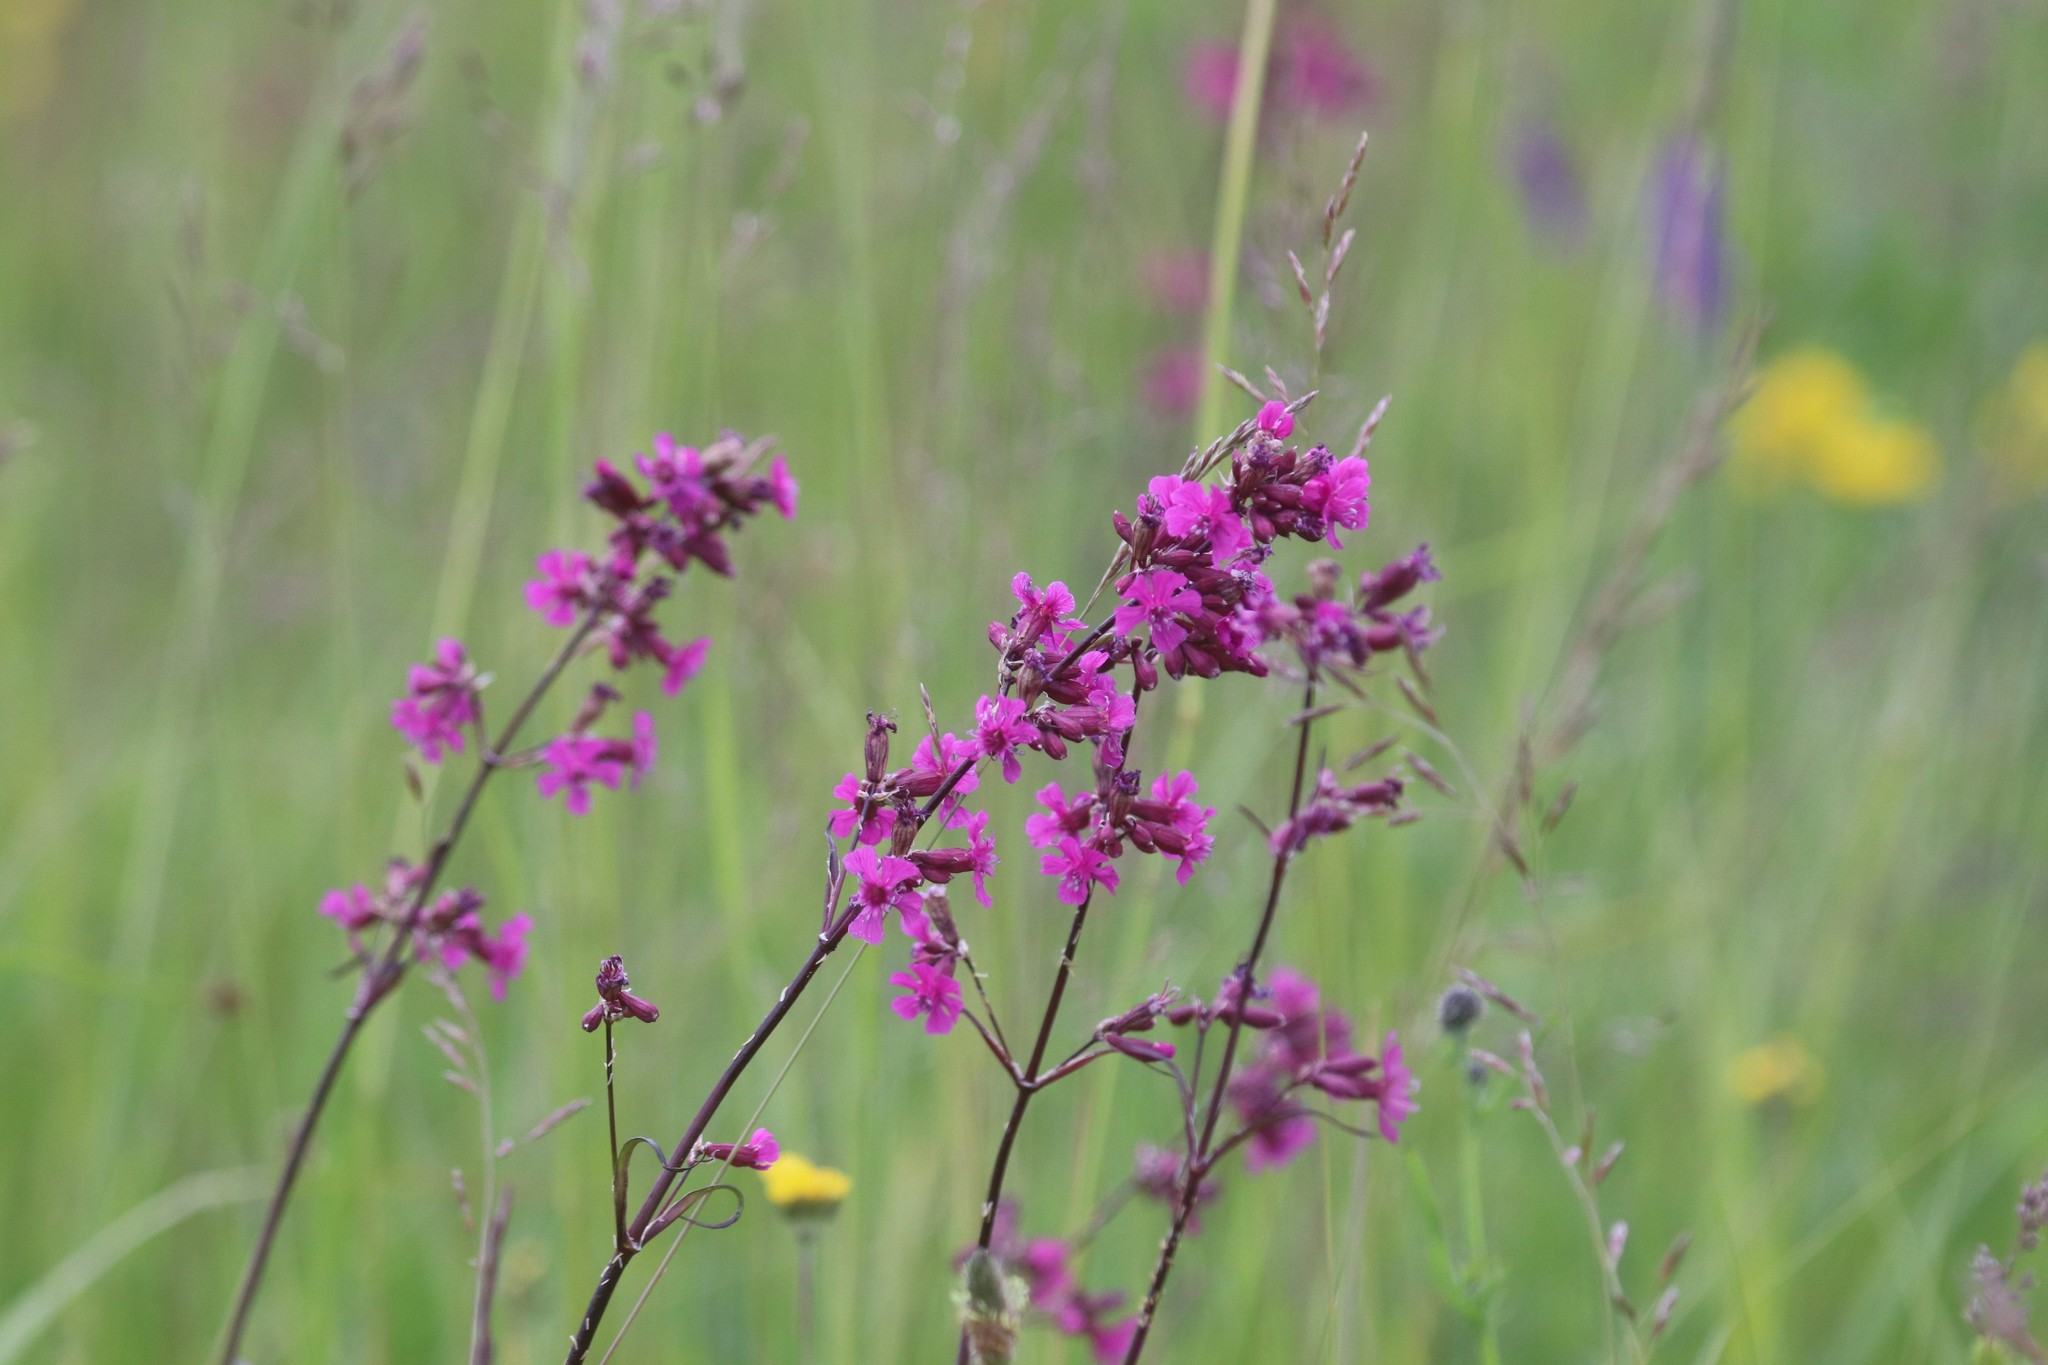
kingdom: Plantae
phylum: Tracheophyta
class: Magnoliopsida
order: Caryophyllales
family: Caryophyllaceae
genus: Viscaria
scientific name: Viscaria vulgaris
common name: Clammy campion
